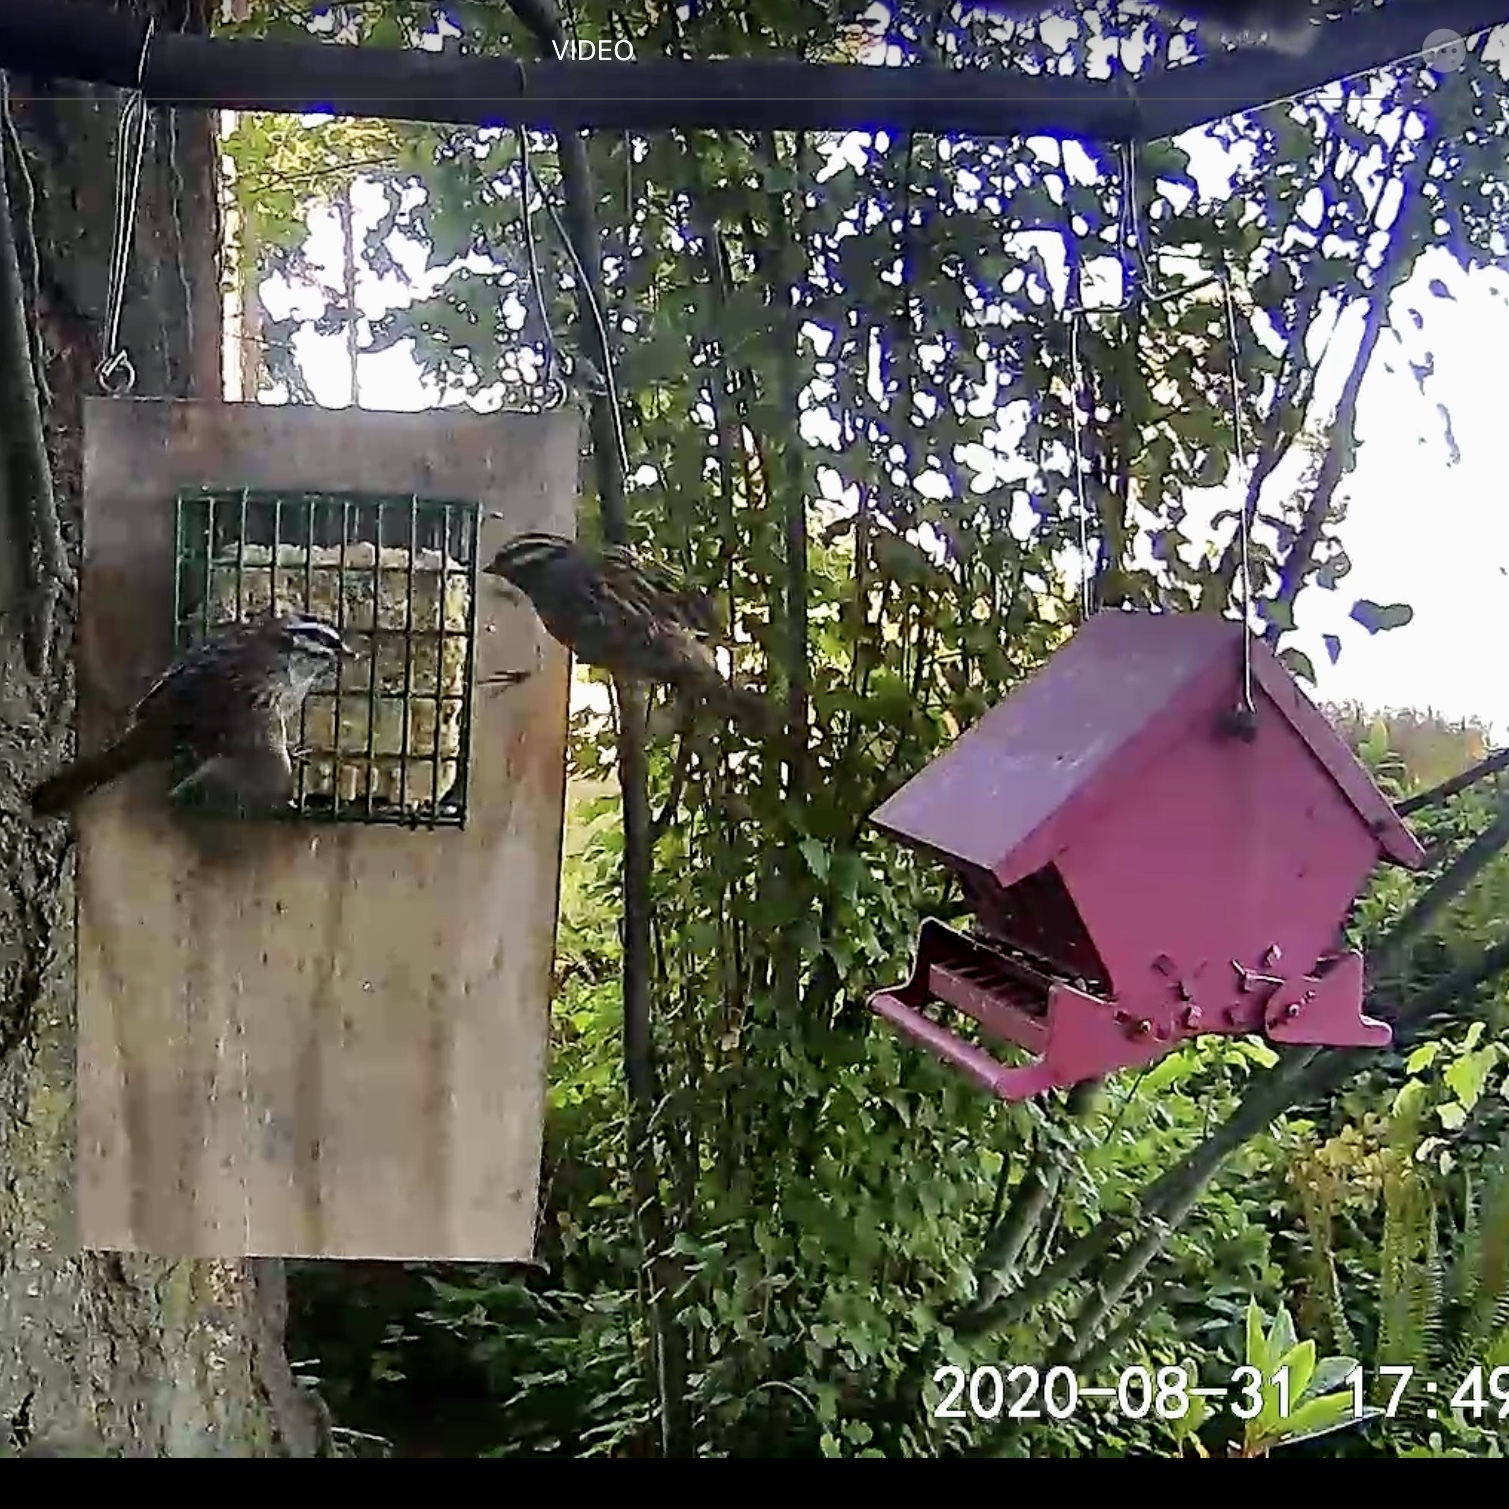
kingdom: Animalia
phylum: Chordata
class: Aves
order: Passeriformes
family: Passerellidae
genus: Zonotrichia
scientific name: Zonotrichia leucophrys
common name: White-crowned sparrow
